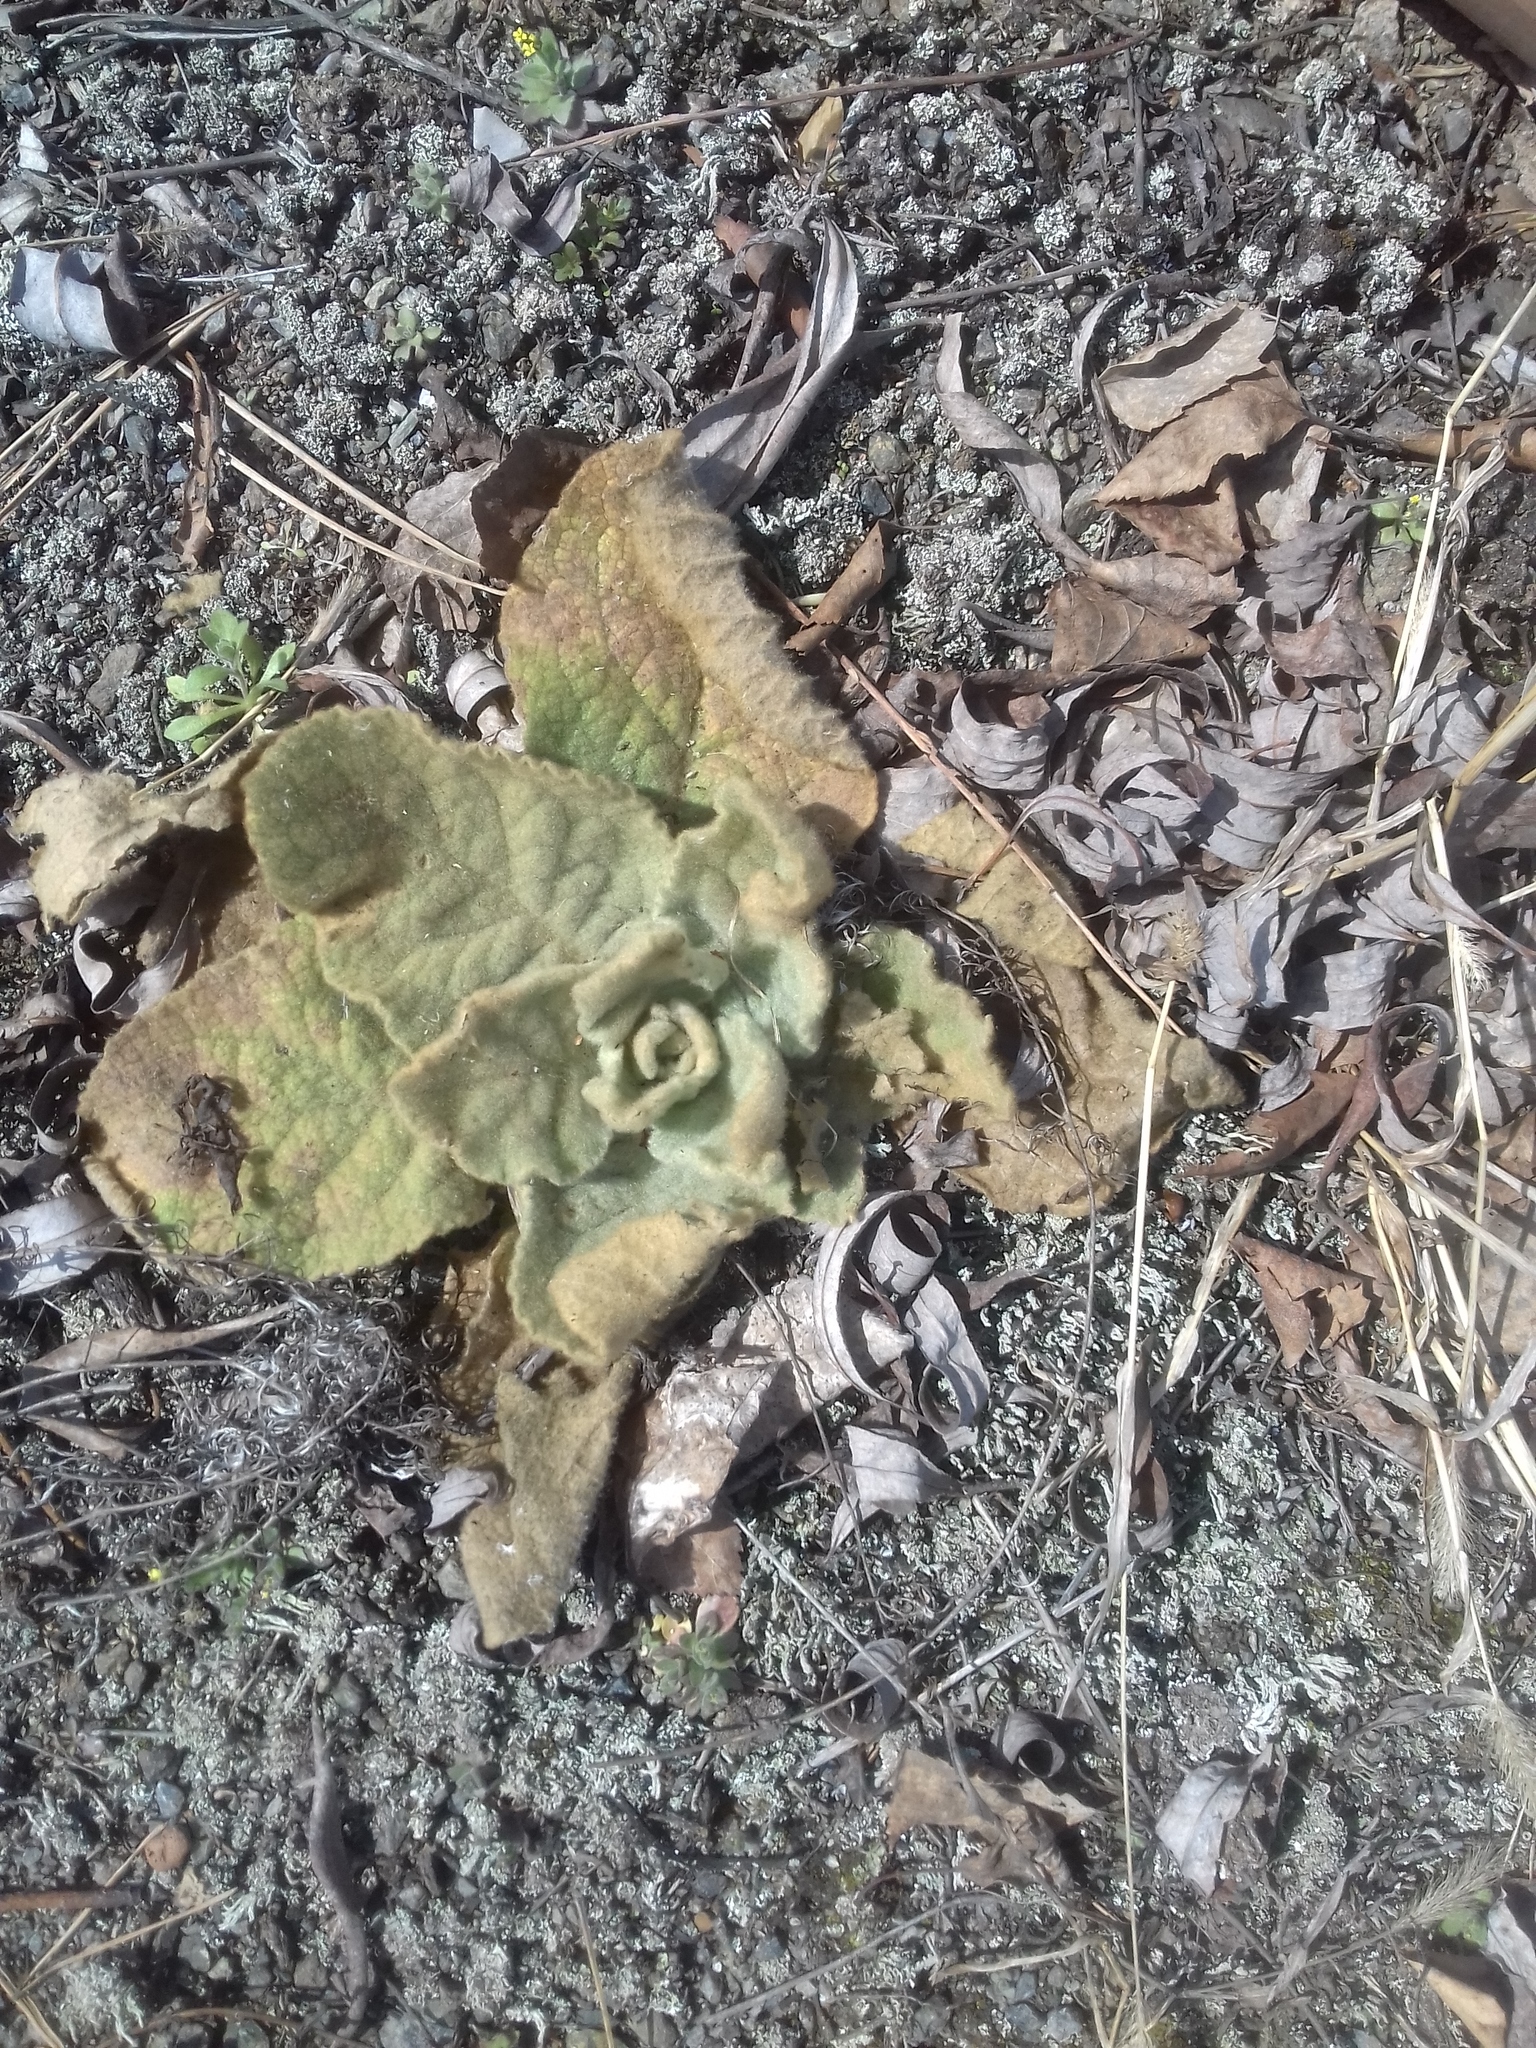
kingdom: Plantae
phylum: Tracheophyta
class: Magnoliopsida
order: Lamiales
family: Scrophulariaceae
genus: Verbascum
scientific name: Verbascum thapsus
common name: Common mullein
